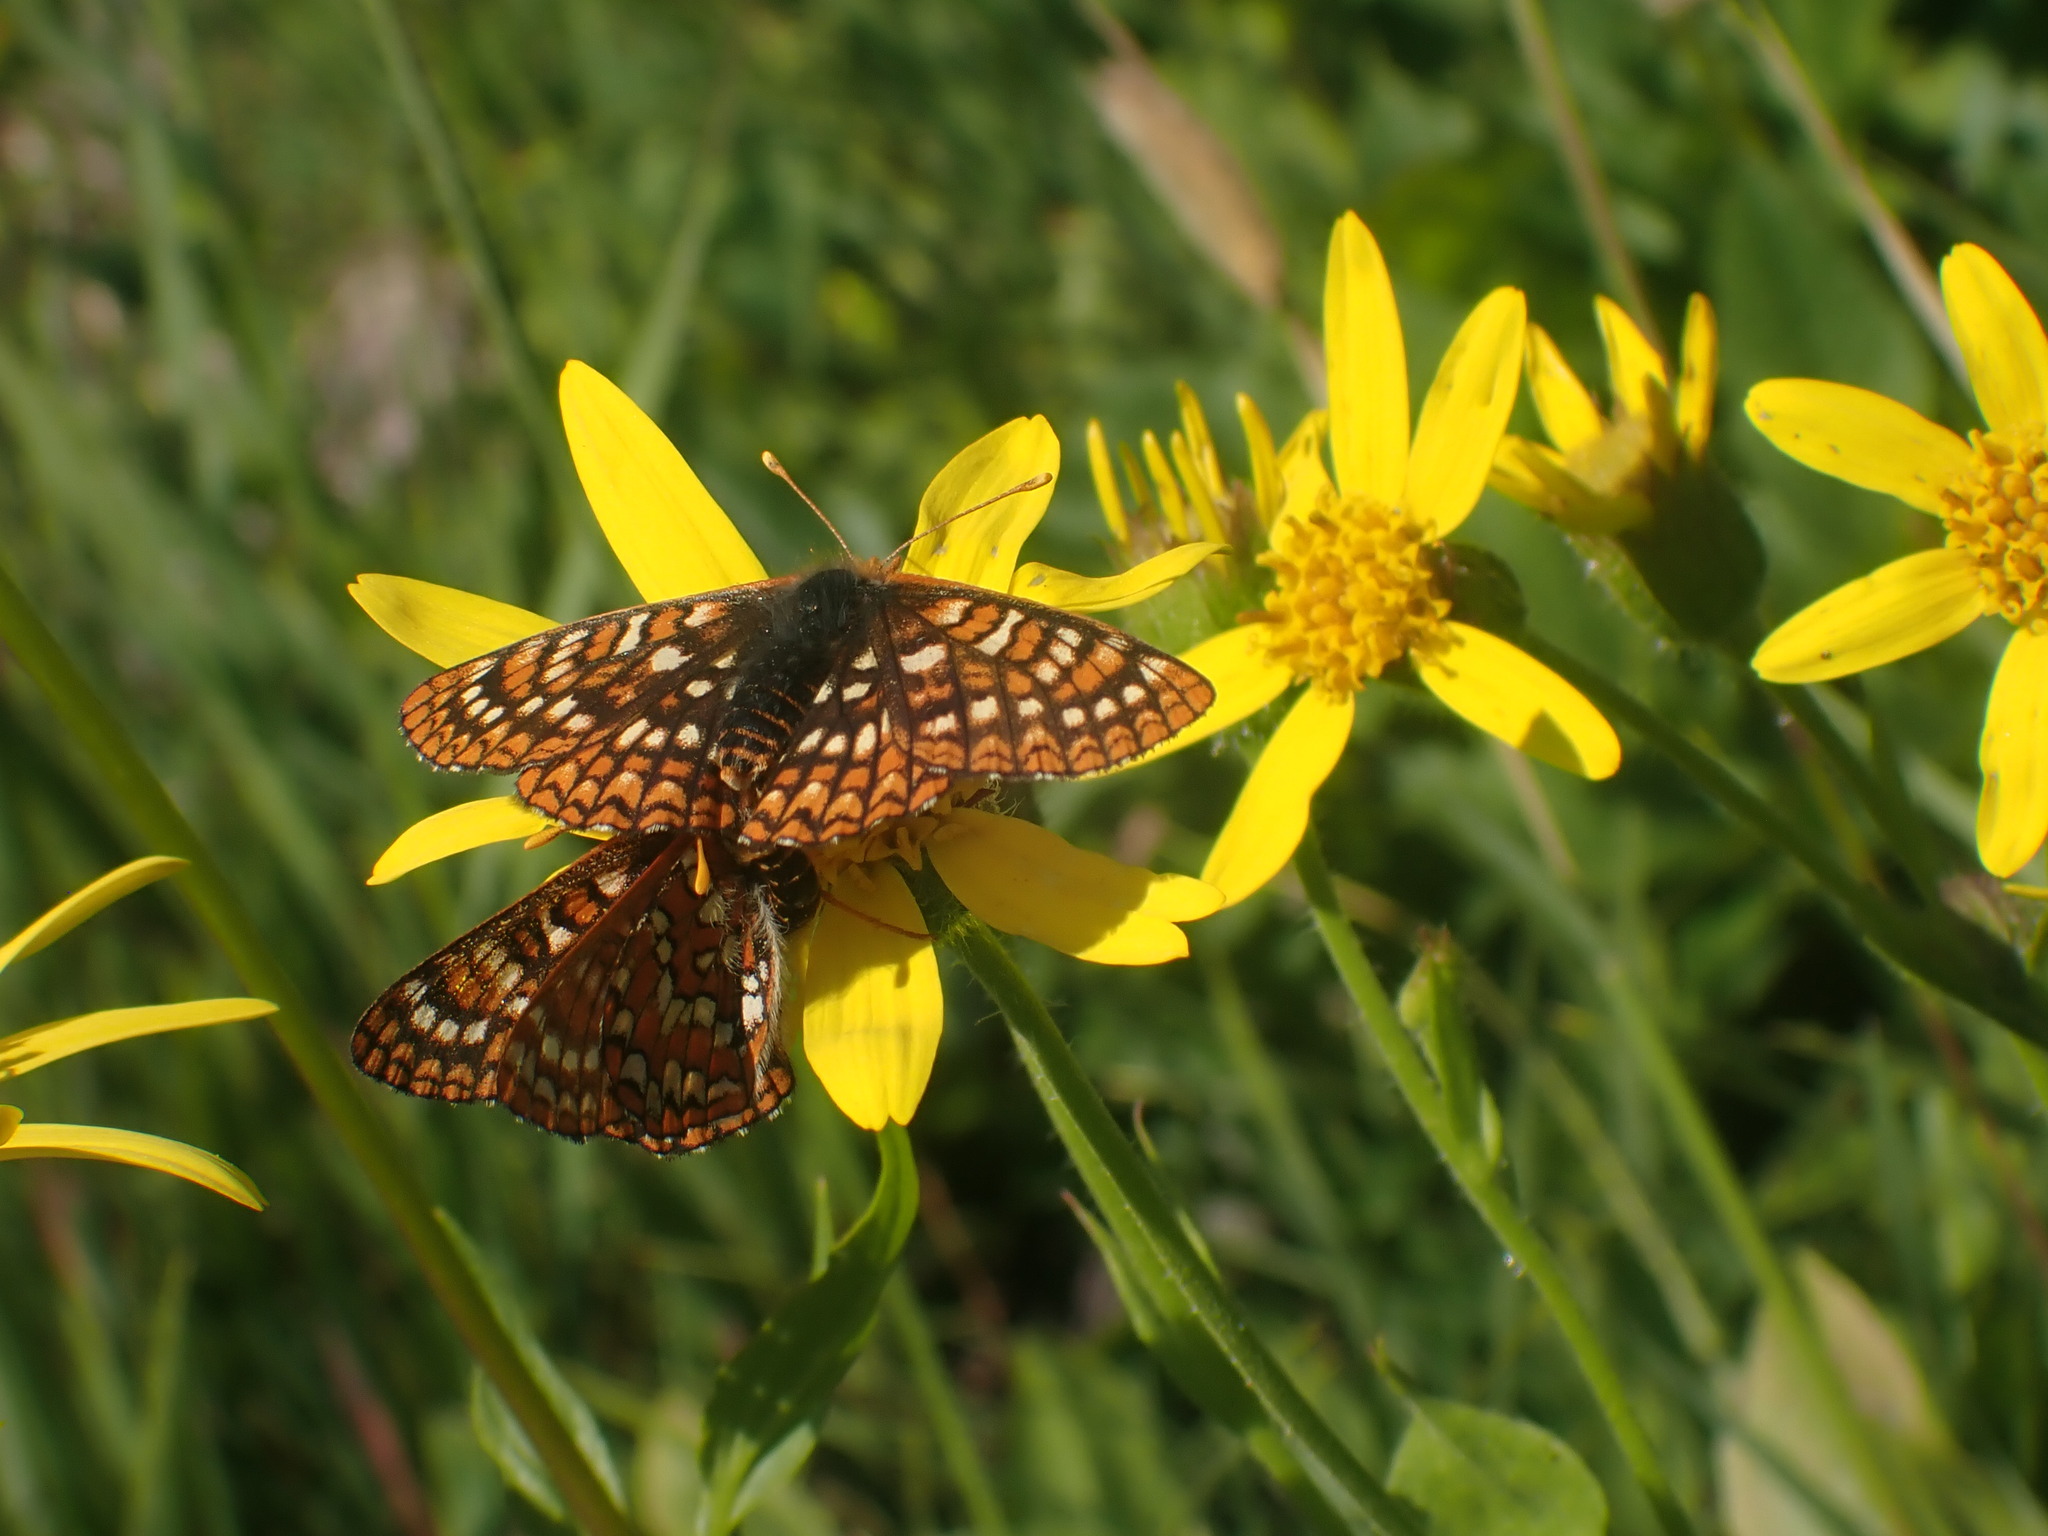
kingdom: Animalia
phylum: Arthropoda
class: Insecta
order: Lepidoptera
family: Nymphalidae
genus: Occidryas
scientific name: Occidryas anicia
